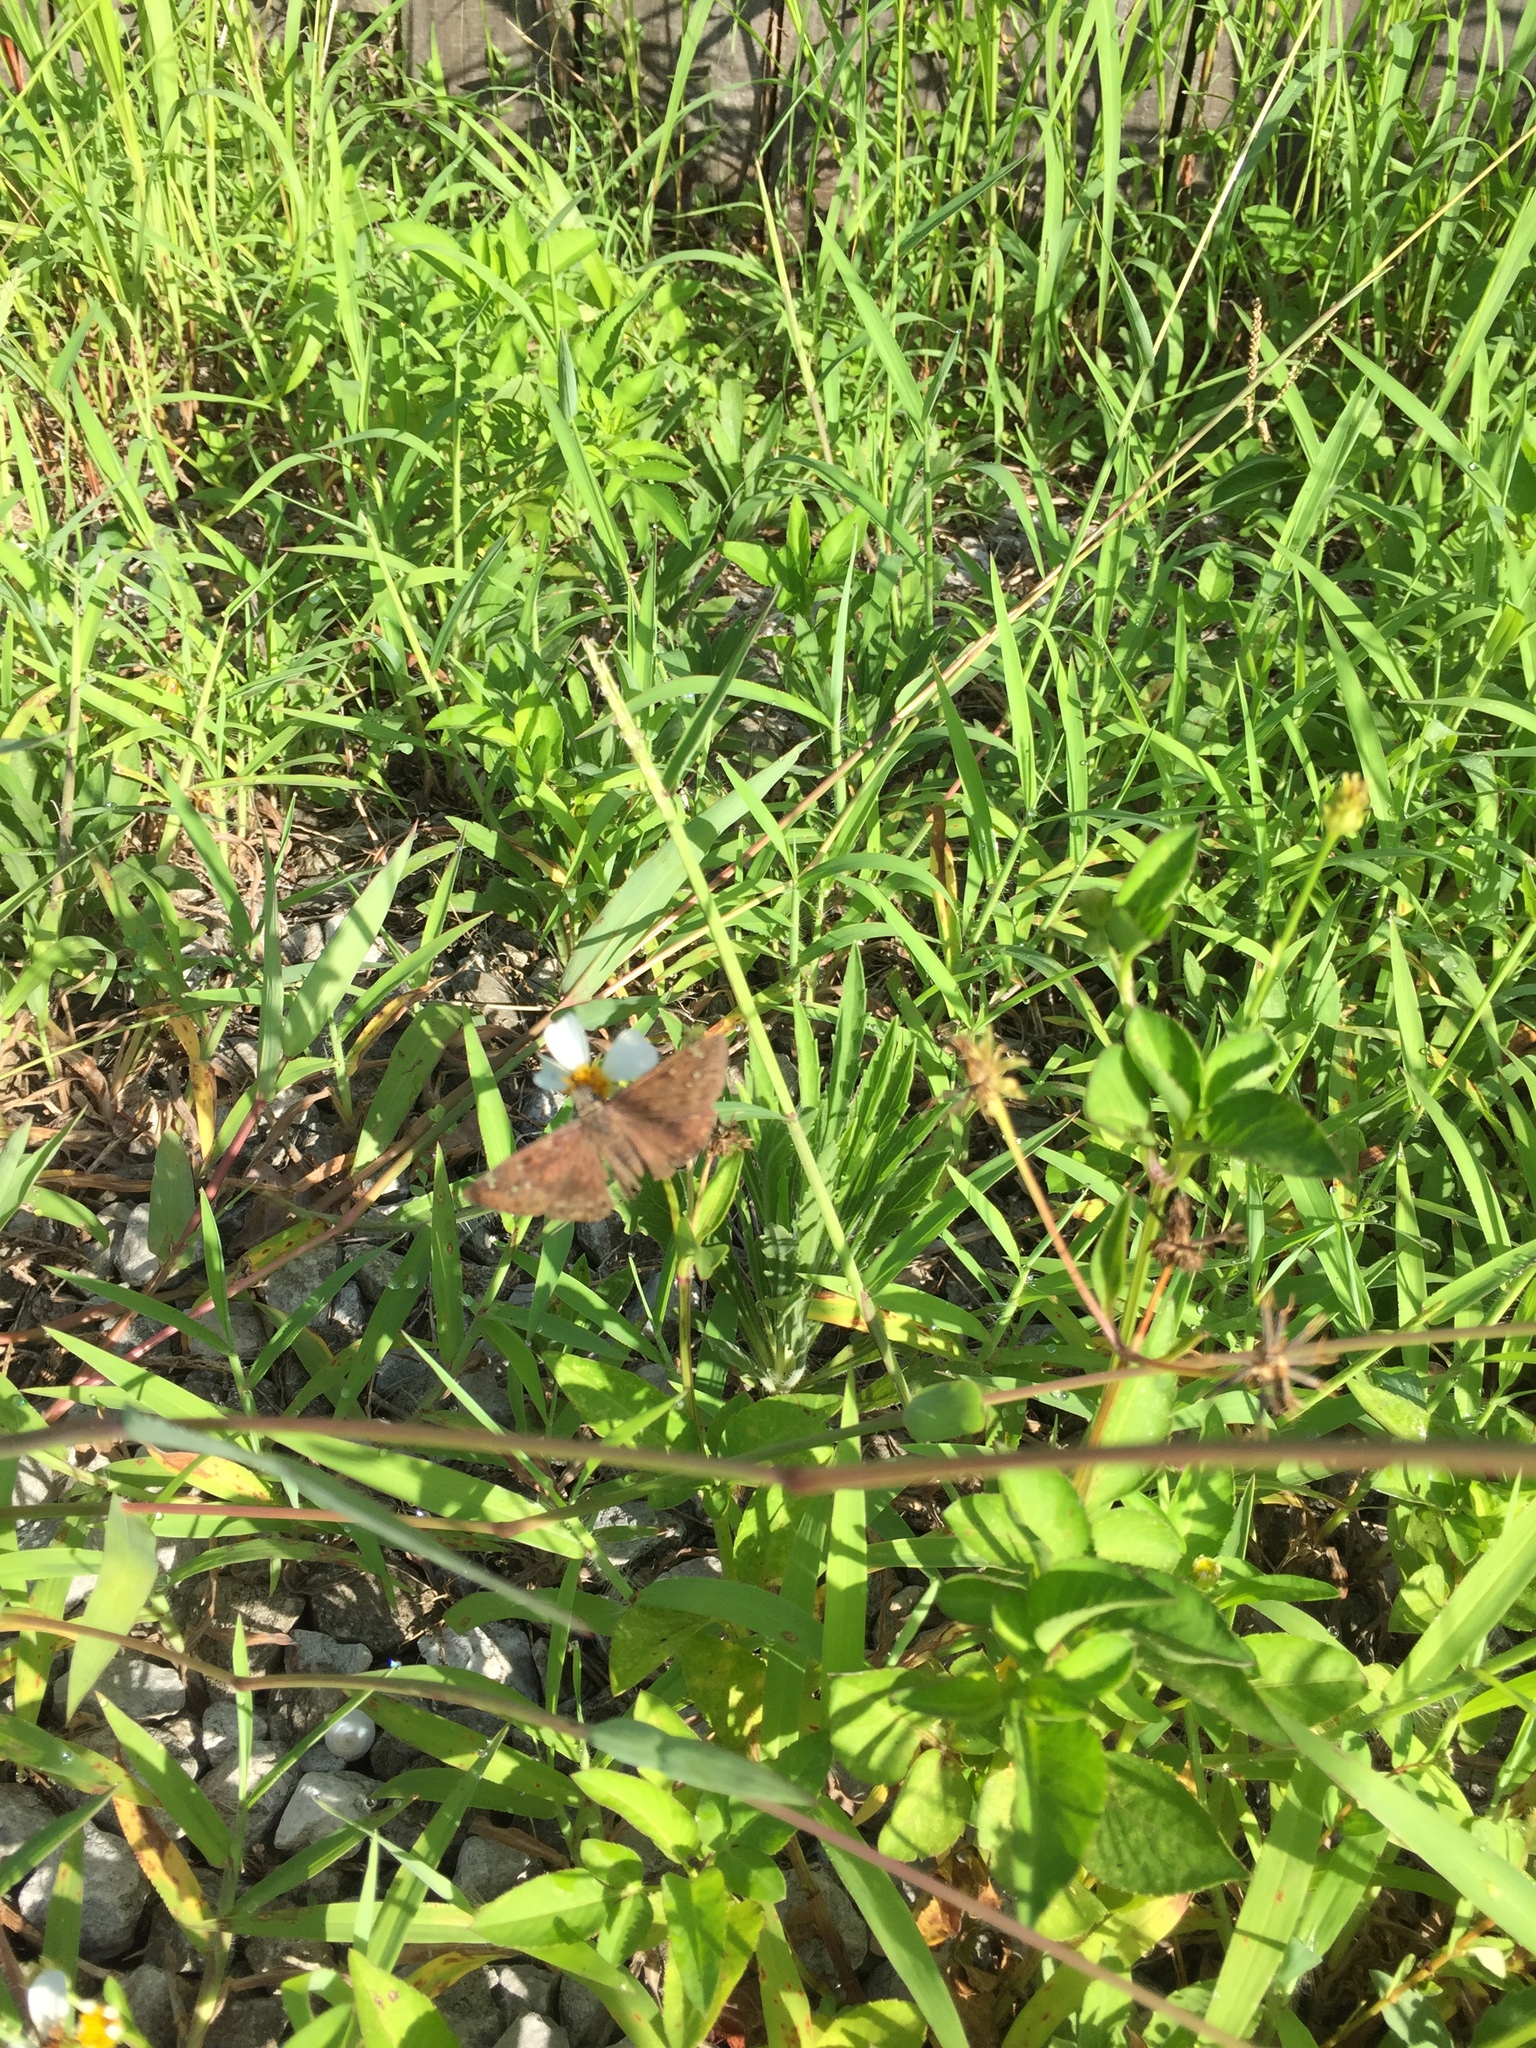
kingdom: Animalia
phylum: Arthropoda
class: Insecta
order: Lepidoptera
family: Hesperiidae
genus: Erynnis
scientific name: Erynnis horatius
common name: Horace's duskywing
